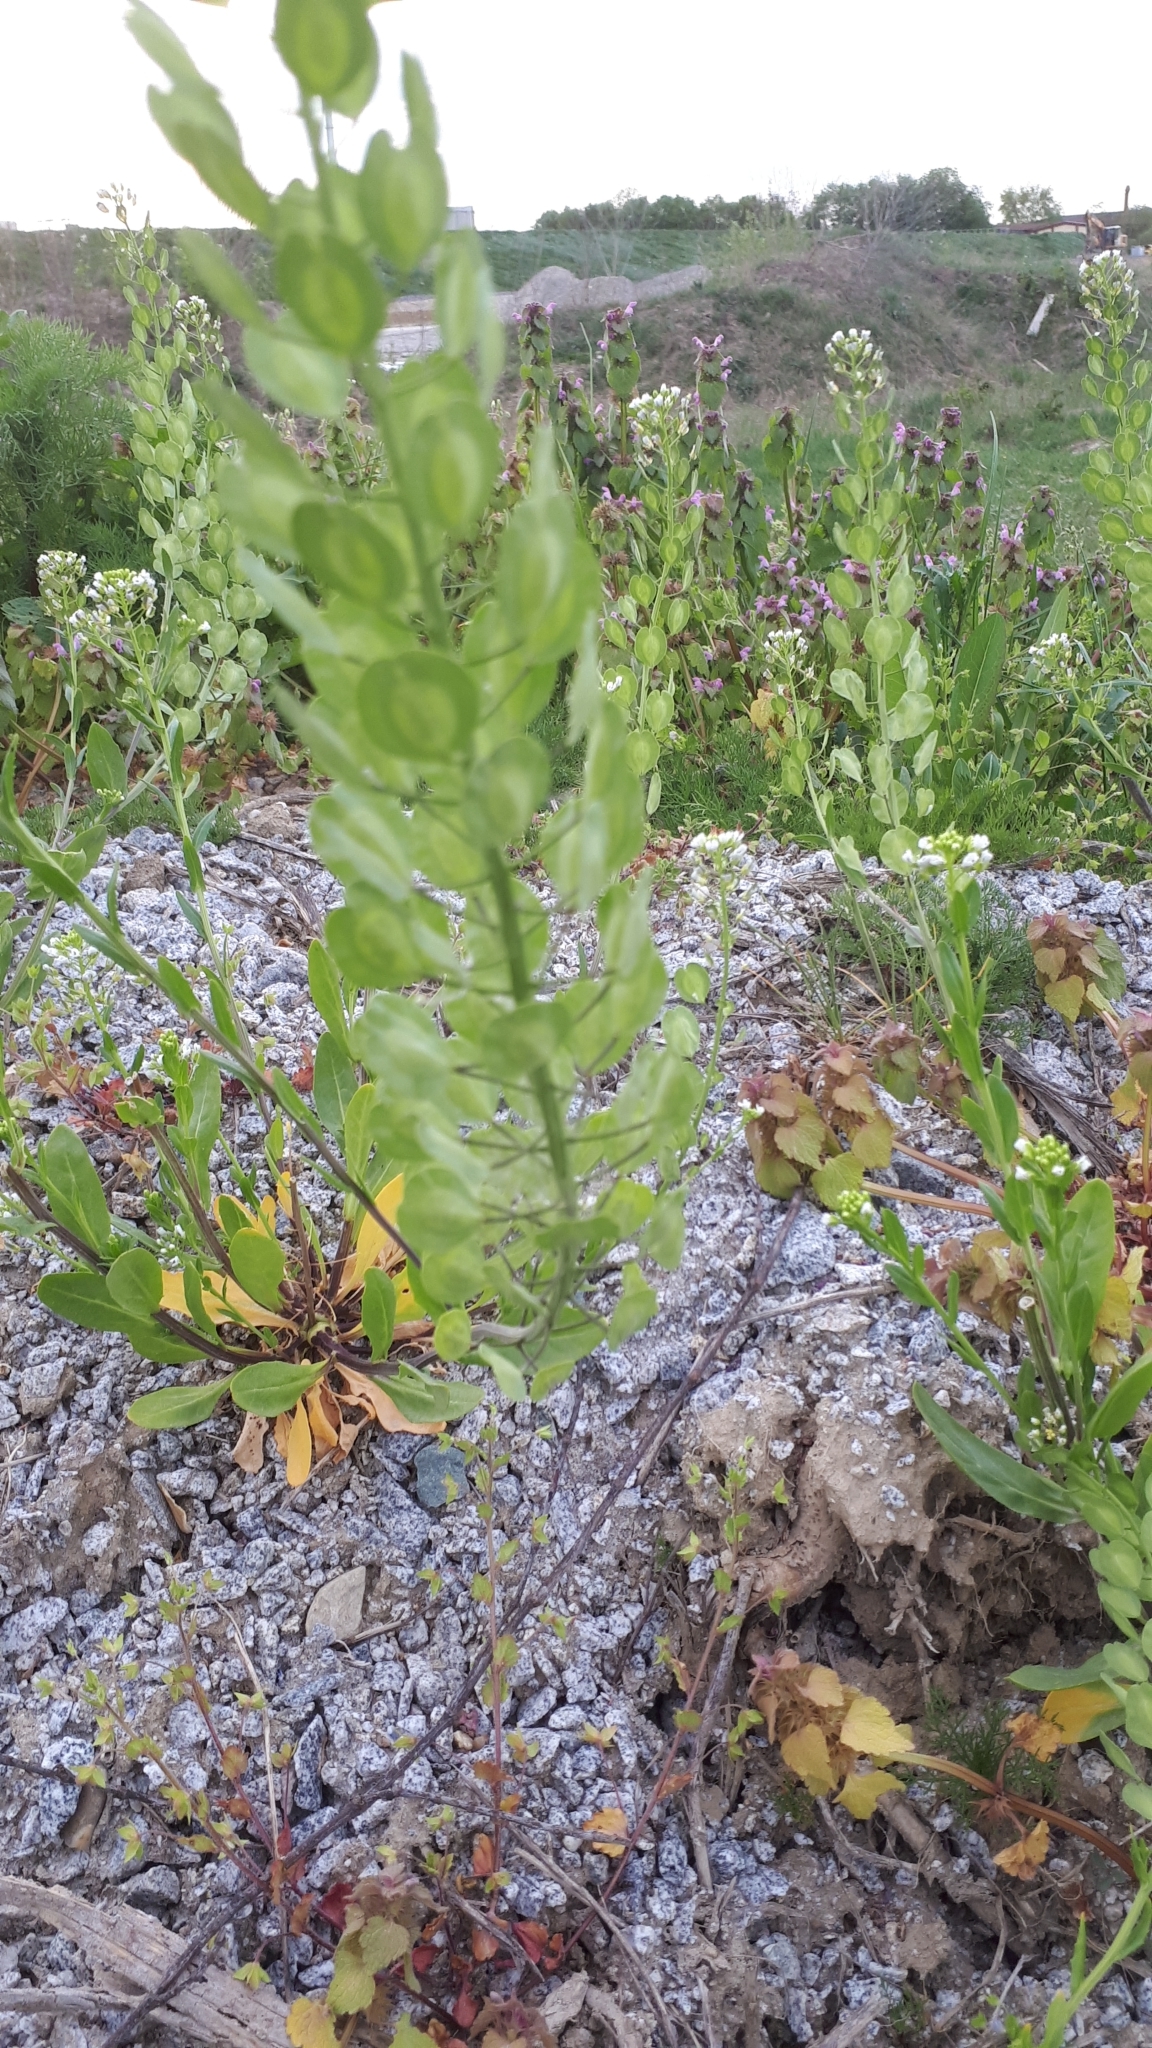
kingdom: Plantae
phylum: Tracheophyta
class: Magnoliopsida
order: Brassicales
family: Brassicaceae
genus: Thlaspi
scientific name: Thlaspi arvense
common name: Field pennycress
